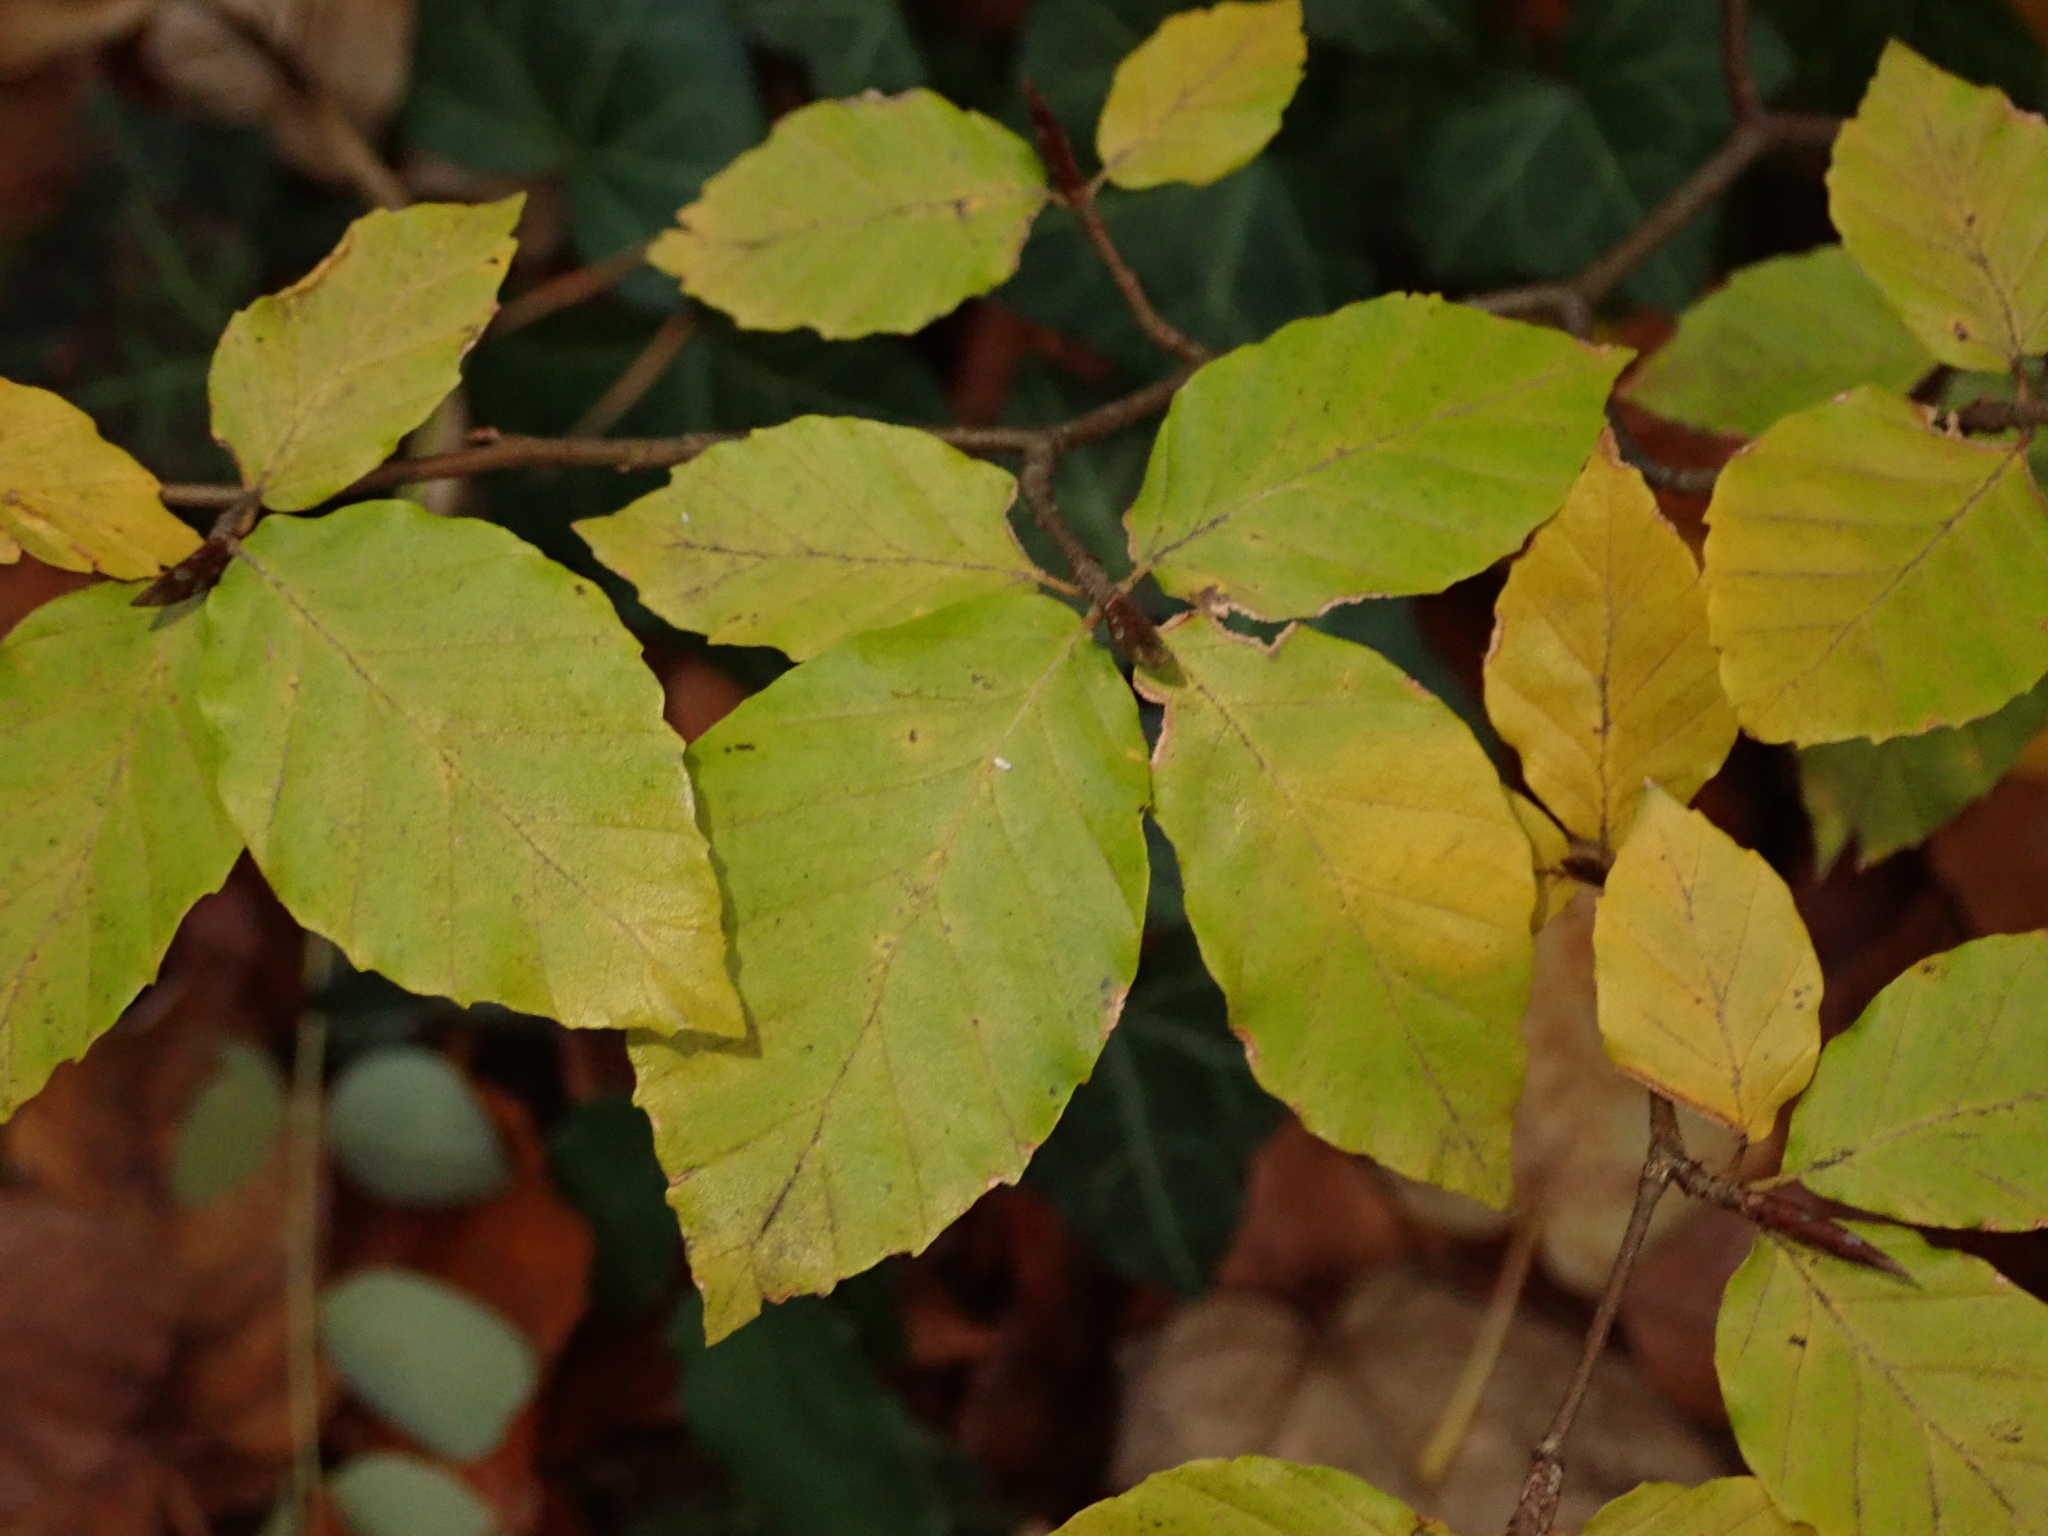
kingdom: Plantae
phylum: Tracheophyta
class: Magnoliopsida
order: Fagales
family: Fagaceae
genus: Fagus
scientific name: Fagus sylvatica
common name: Beech
